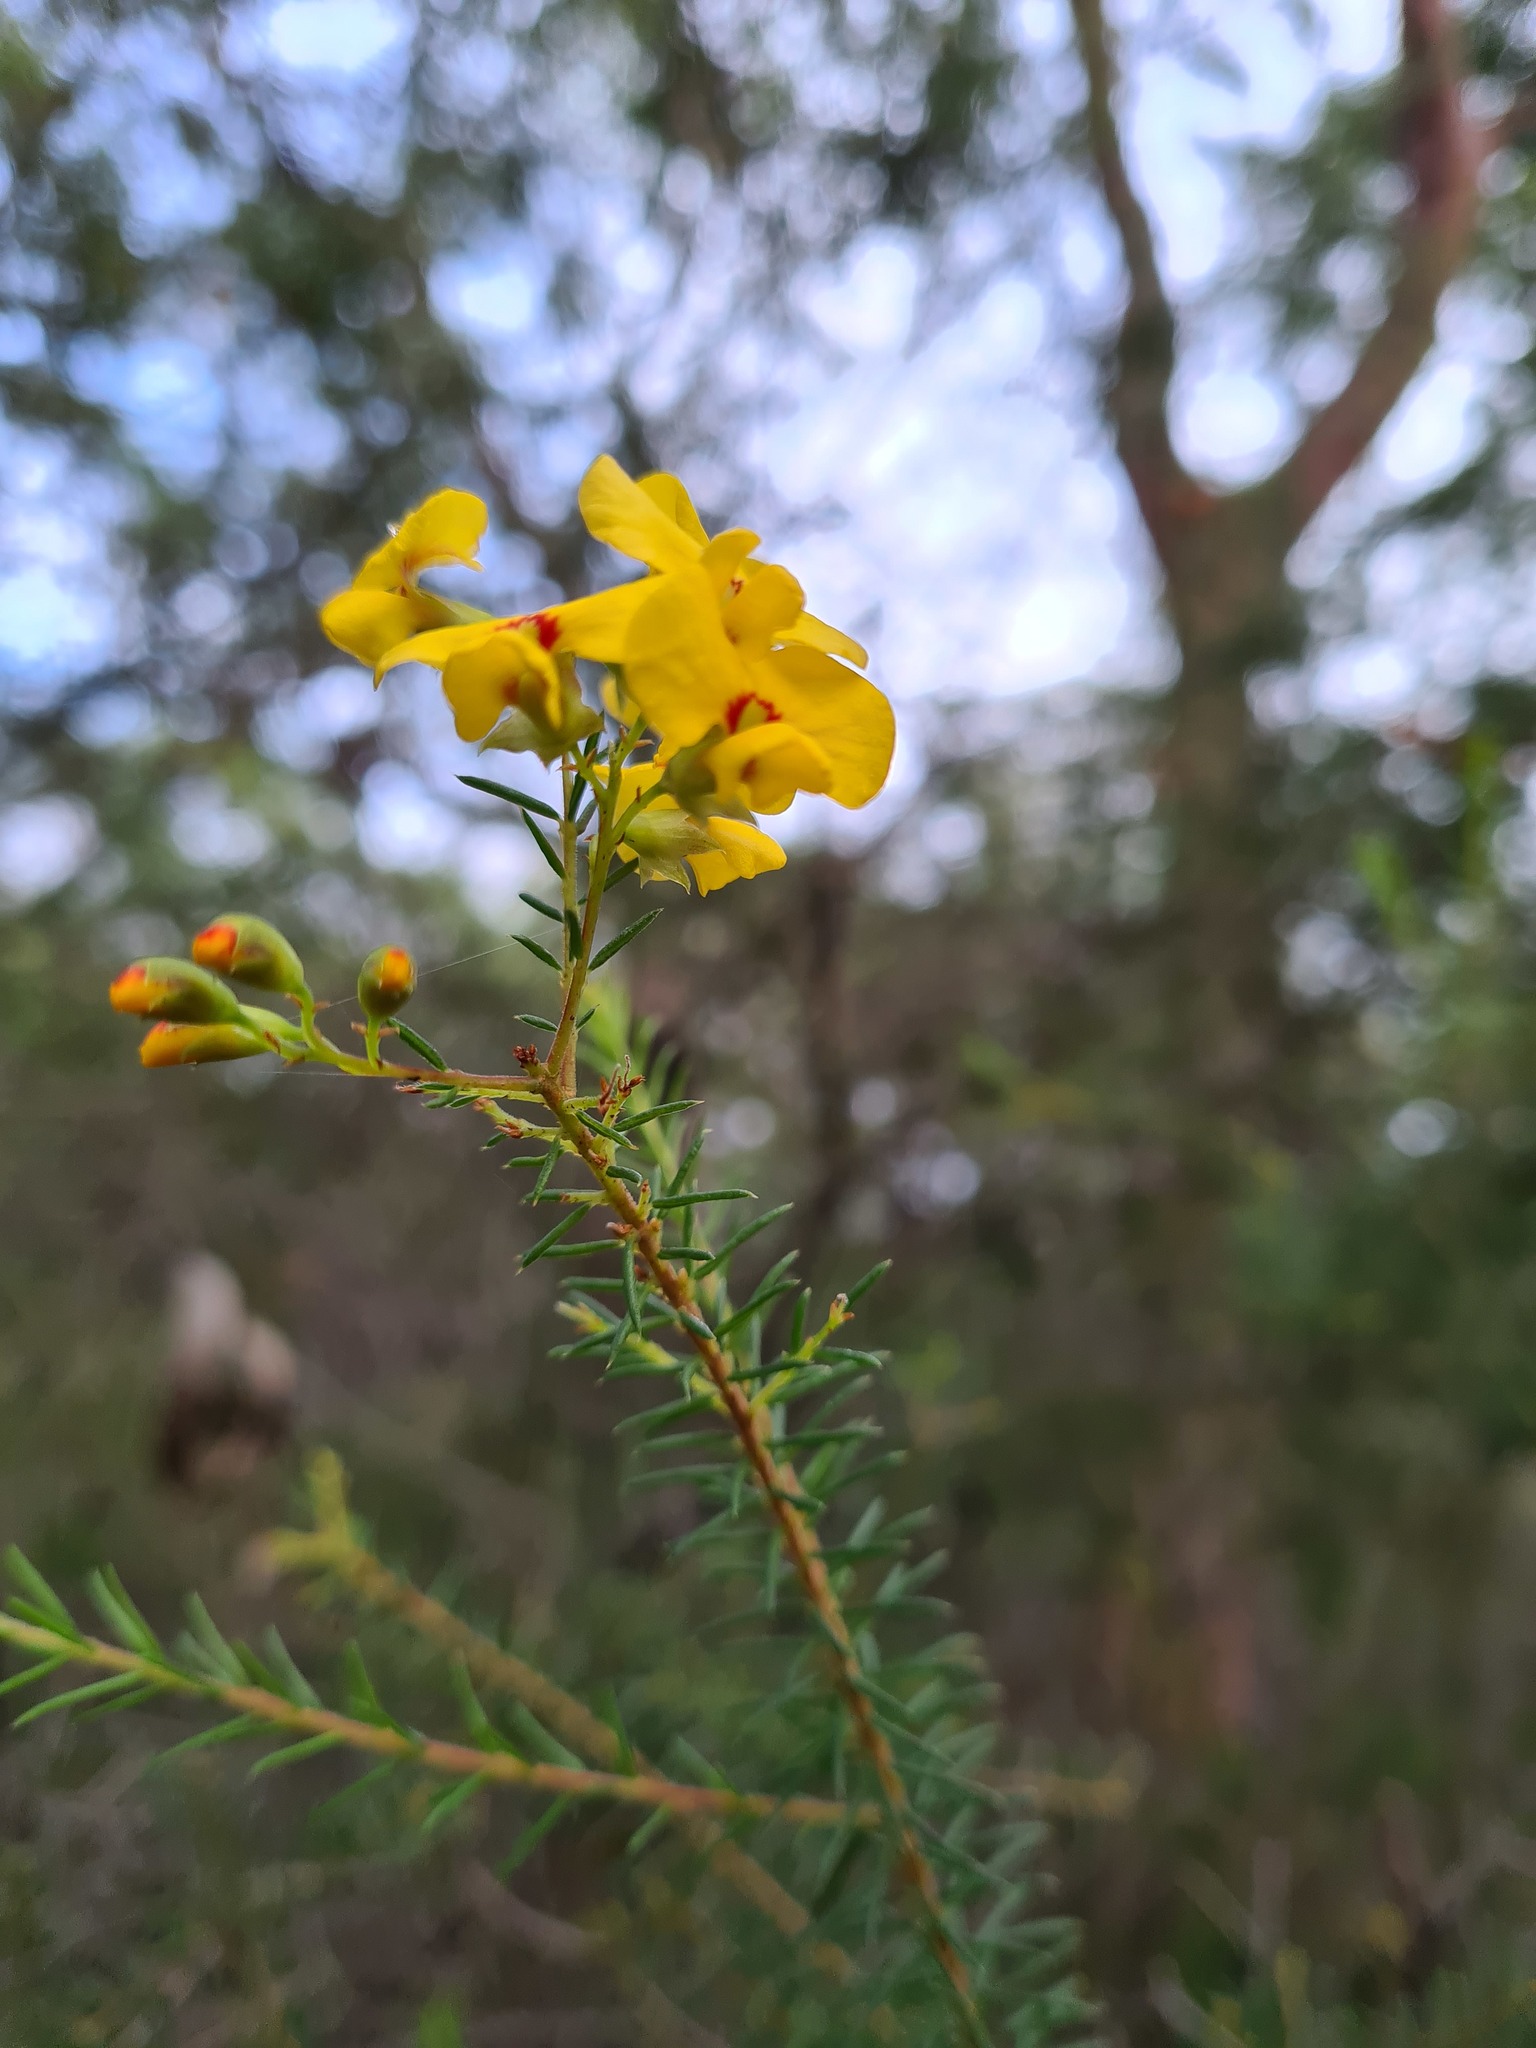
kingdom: Plantae
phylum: Tracheophyta
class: Magnoliopsida
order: Fabales
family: Fabaceae
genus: Dillwynia
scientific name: Dillwynia retorta
